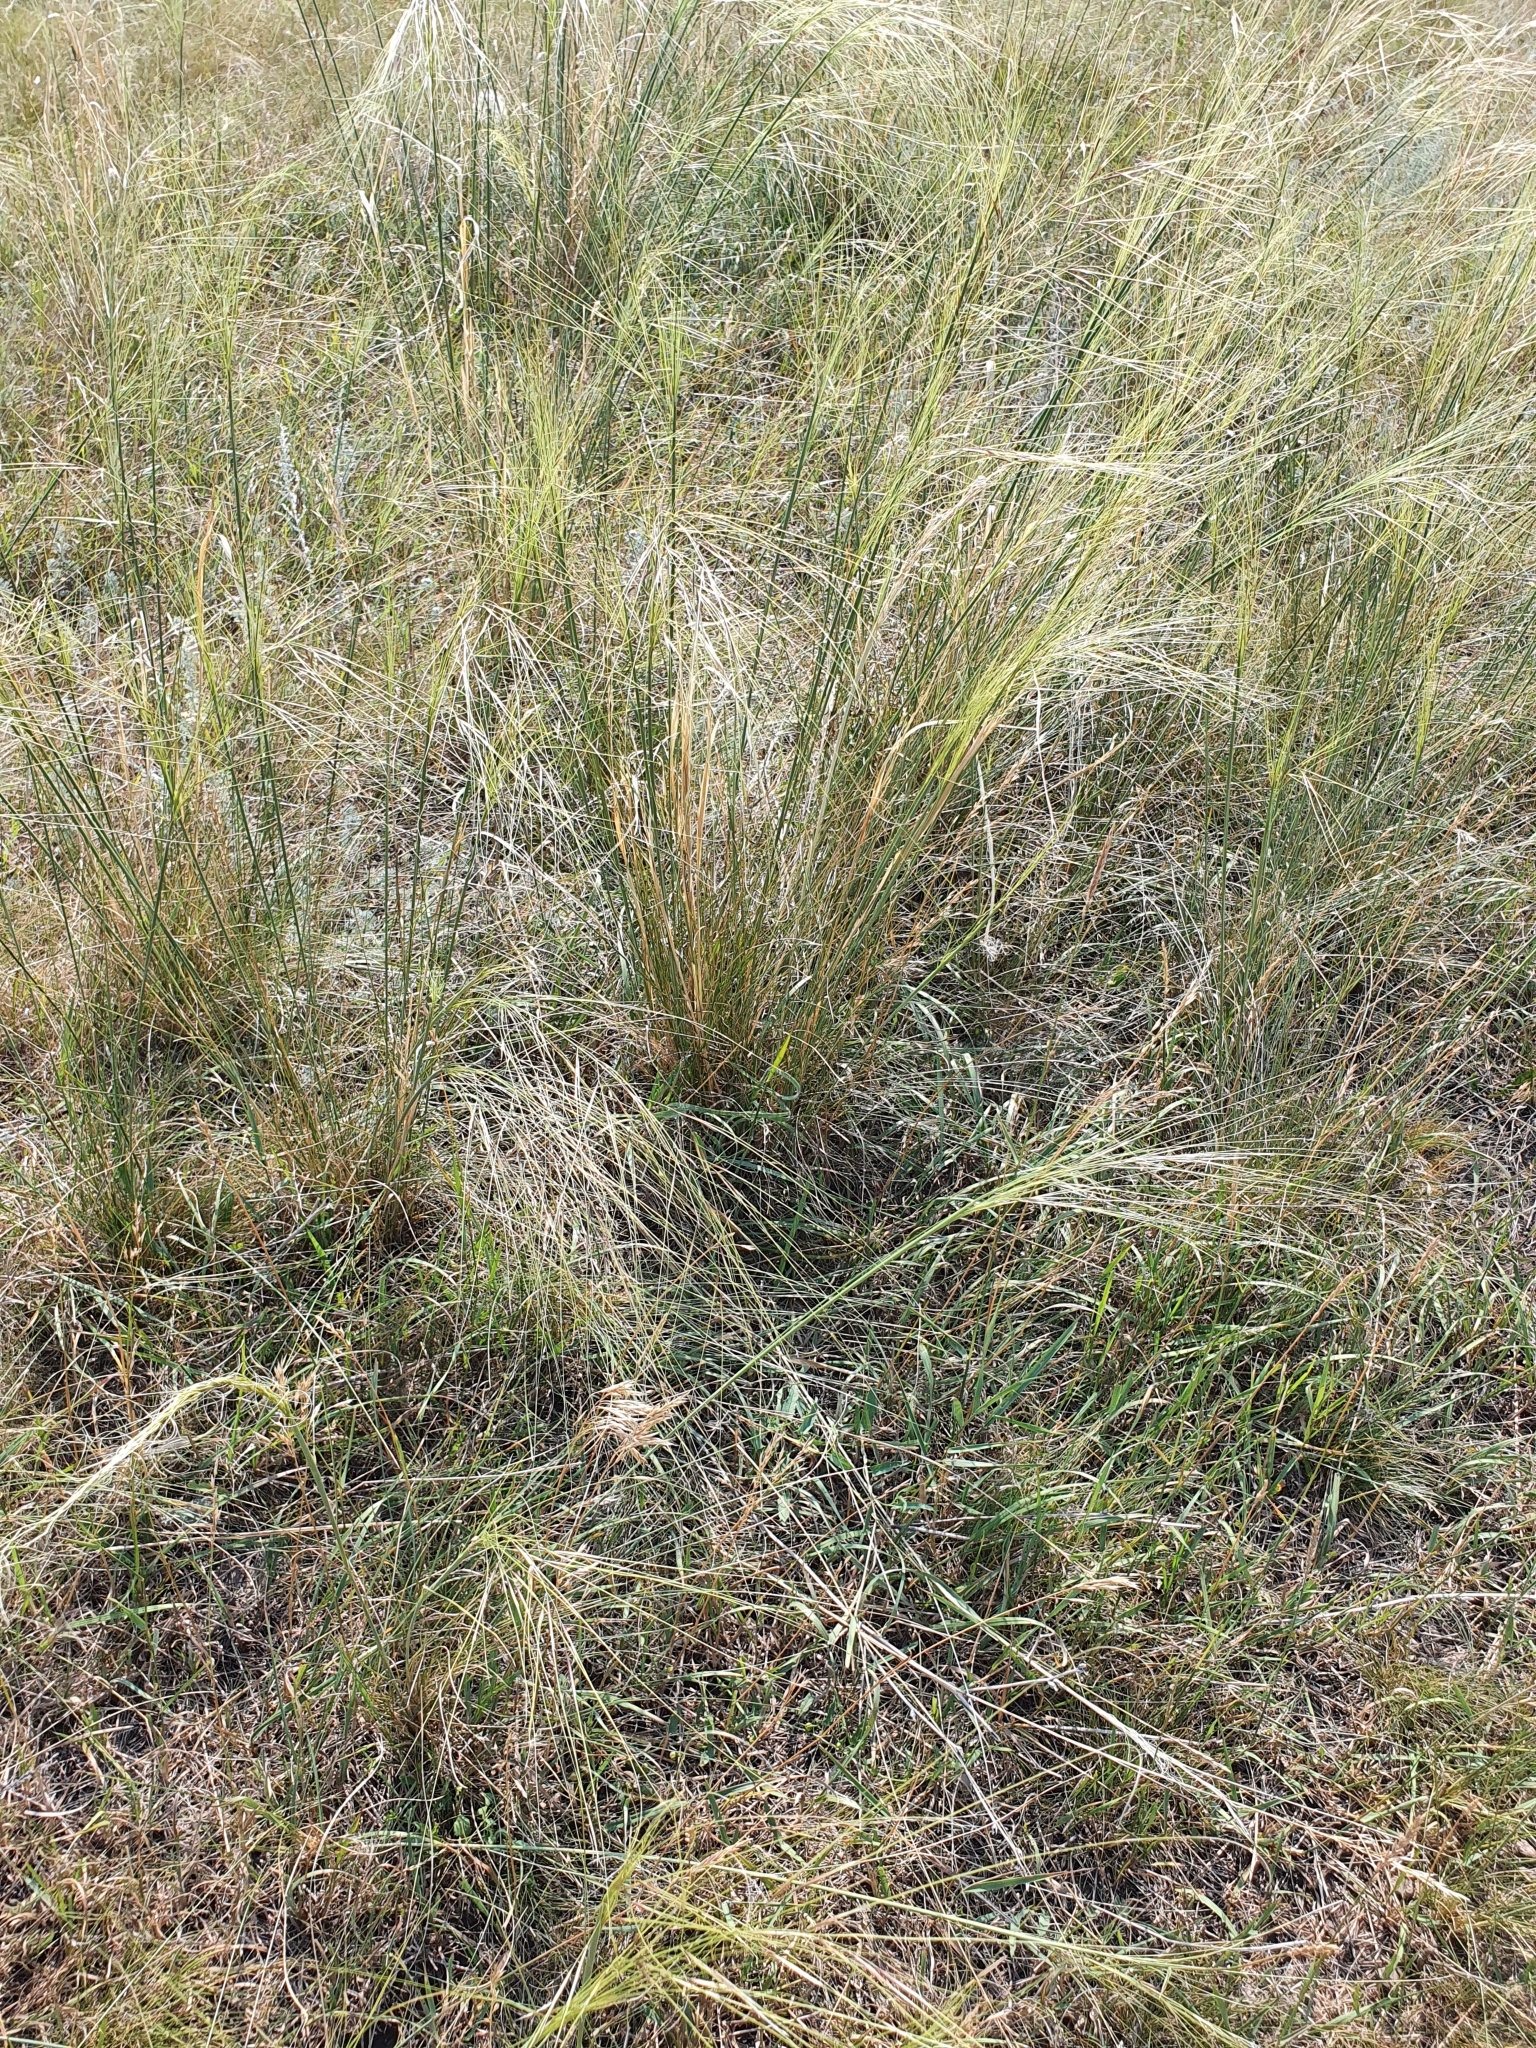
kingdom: Plantae
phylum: Tracheophyta
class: Liliopsida
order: Poales
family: Poaceae
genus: Stipa
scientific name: Stipa capillata
